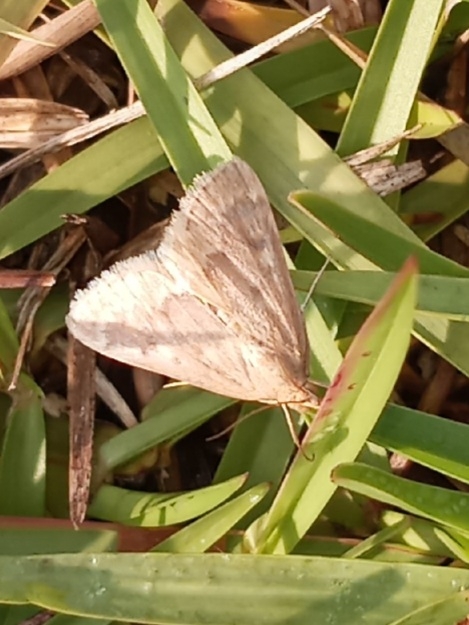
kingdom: Animalia
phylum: Arthropoda
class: Insecta
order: Lepidoptera
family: Crambidae
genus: Achyra
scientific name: Achyra rantalis
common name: Garden webworm
